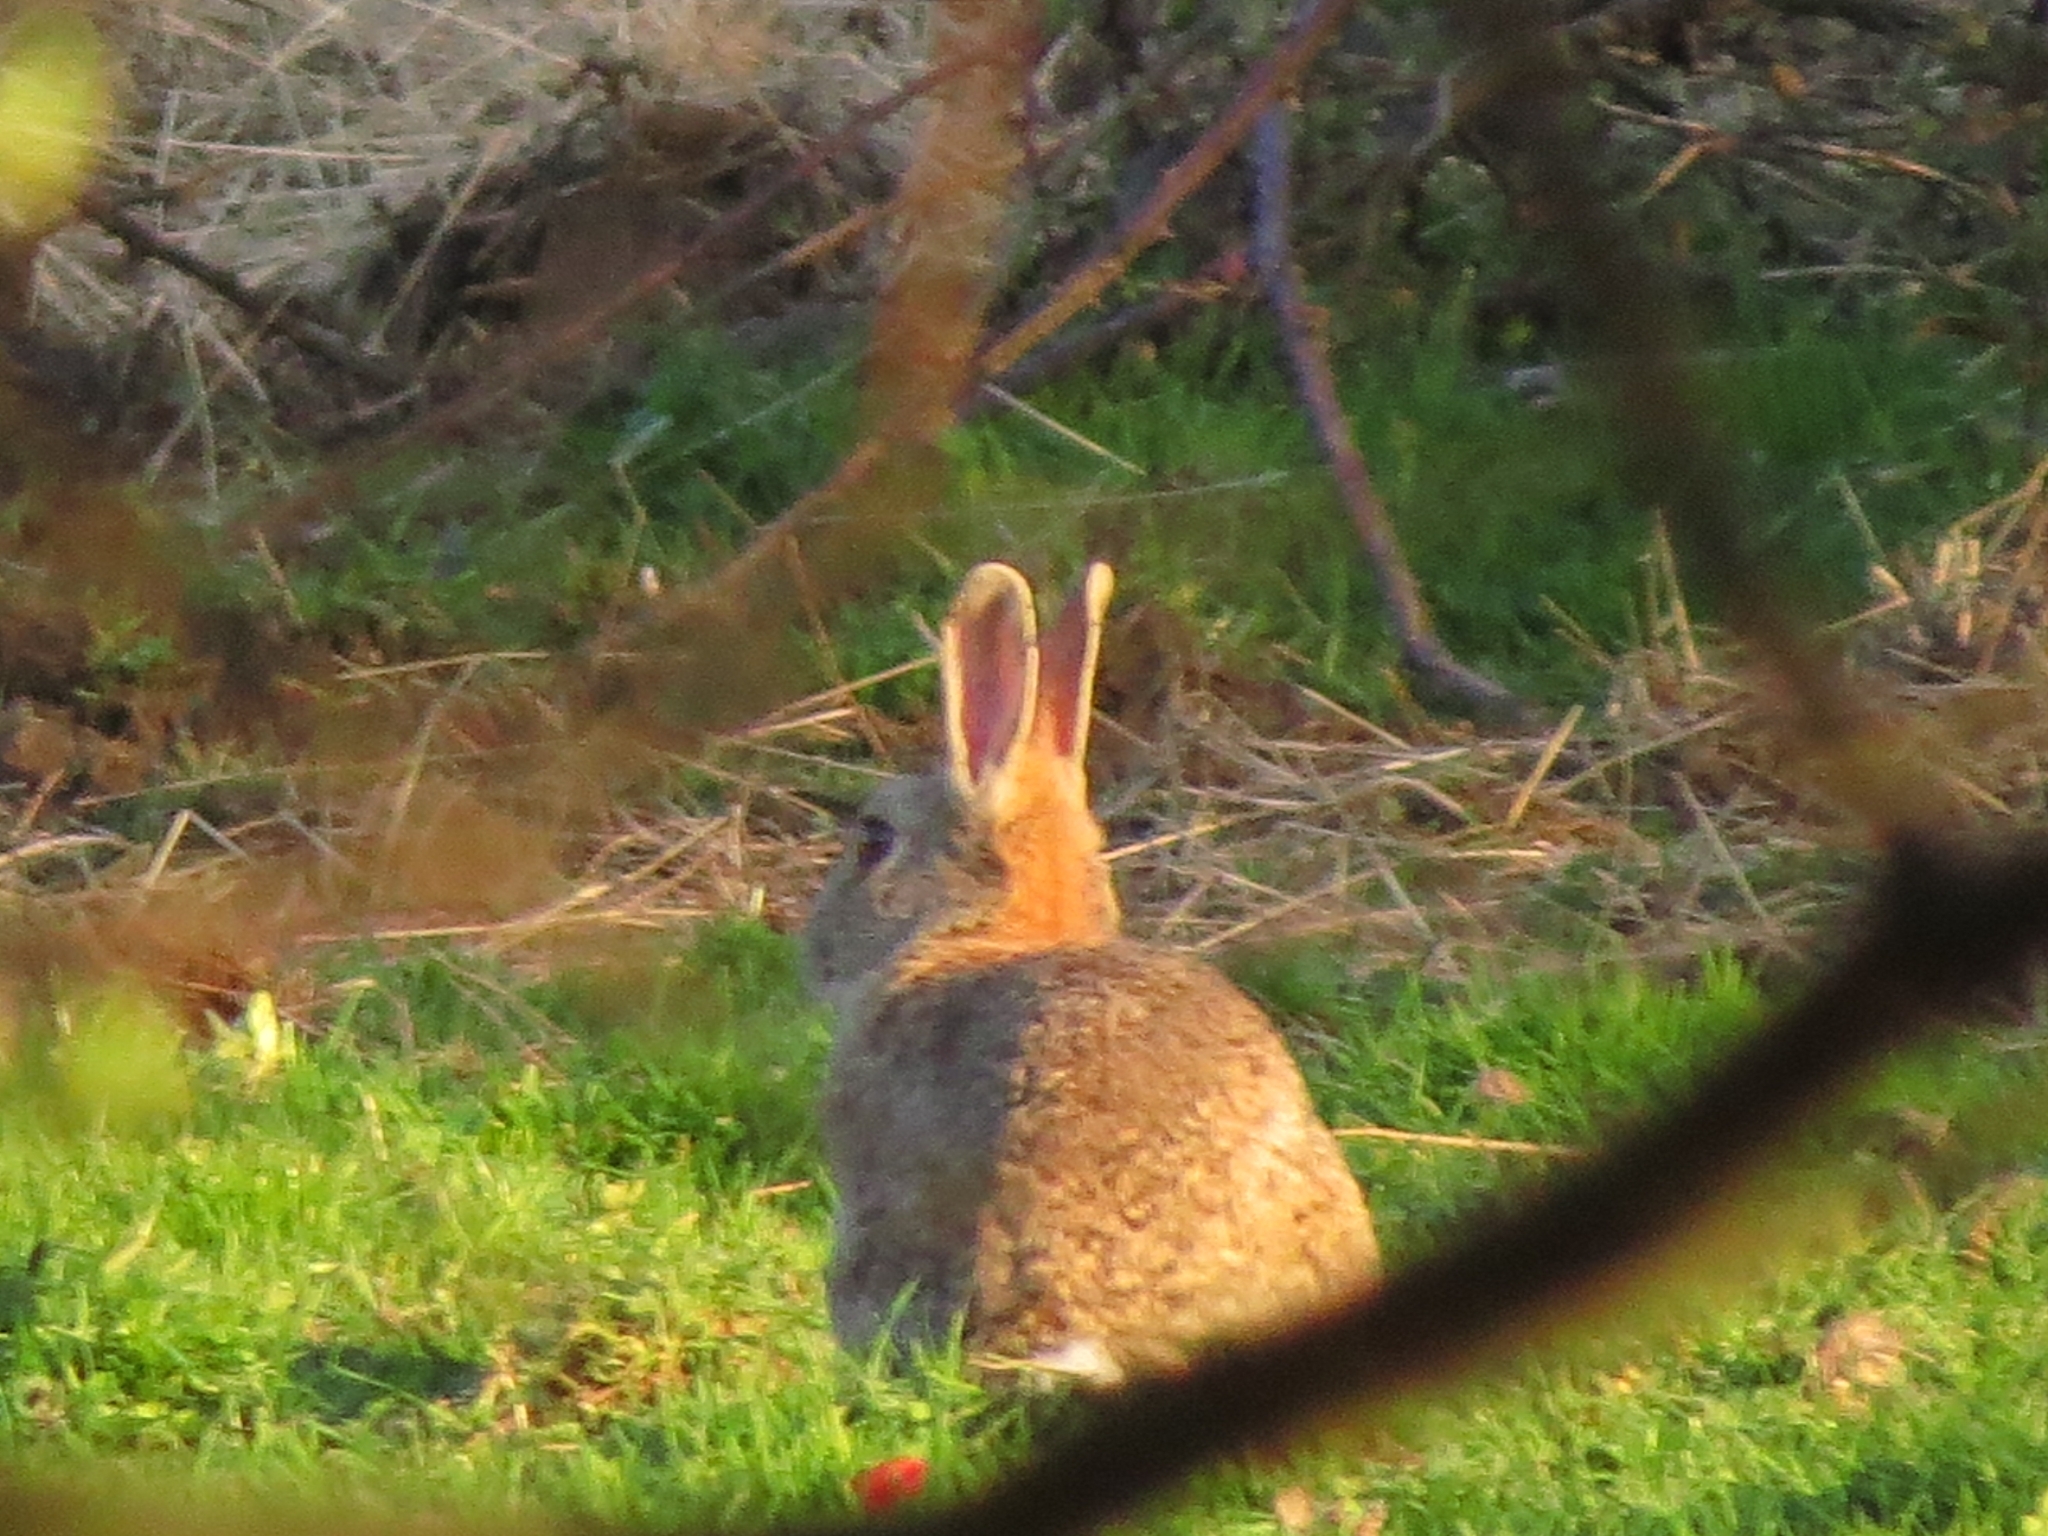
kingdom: Animalia
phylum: Chordata
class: Mammalia
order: Lagomorpha
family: Leporidae
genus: Oryctolagus
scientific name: Oryctolagus cuniculus
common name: European rabbit
